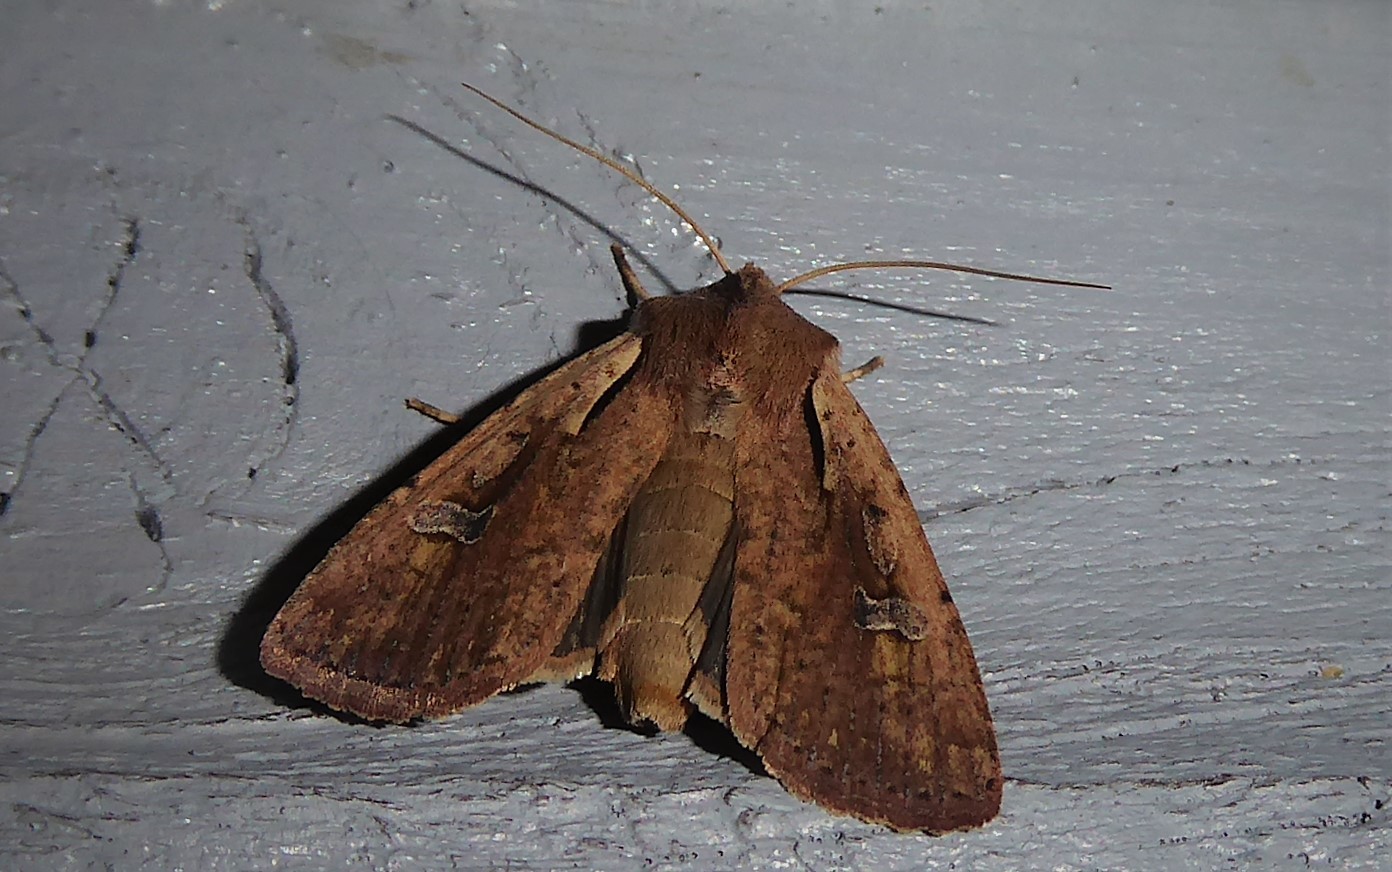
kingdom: Animalia
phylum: Arthropoda
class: Insecta
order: Lepidoptera
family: Noctuidae
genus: Ichneutica
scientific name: Ichneutica atristriga
